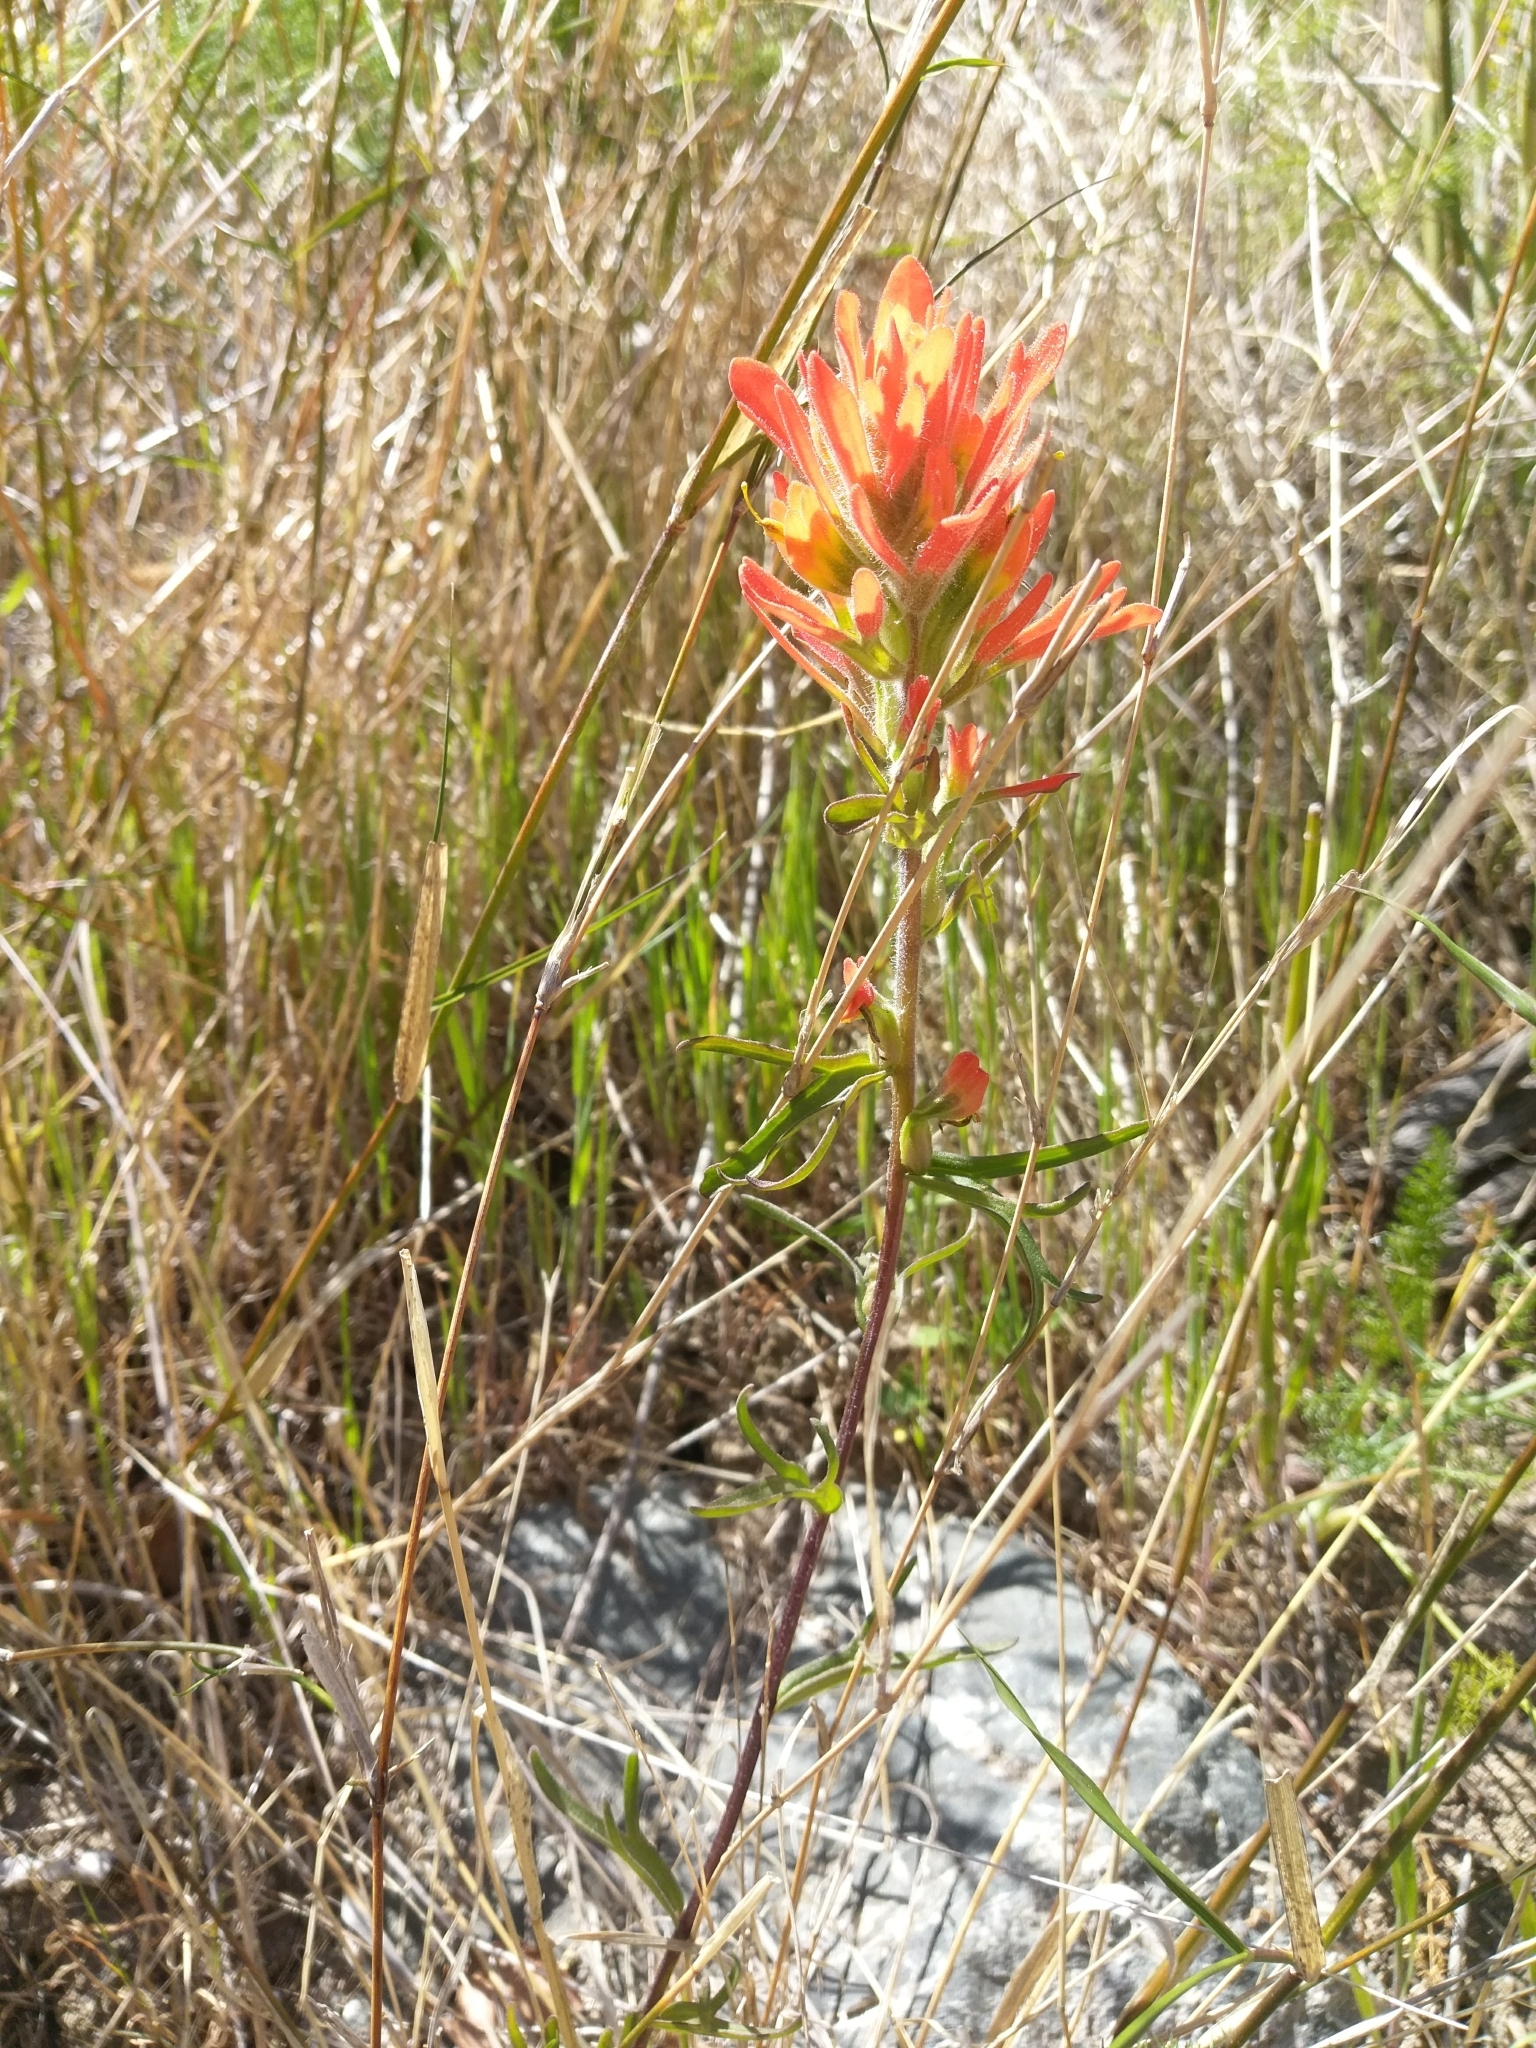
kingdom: Plantae
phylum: Tracheophyta
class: Magnoliopsida
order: Lamiales
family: Orobanchaceae
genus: Castilleja
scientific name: Castilleja affinis
